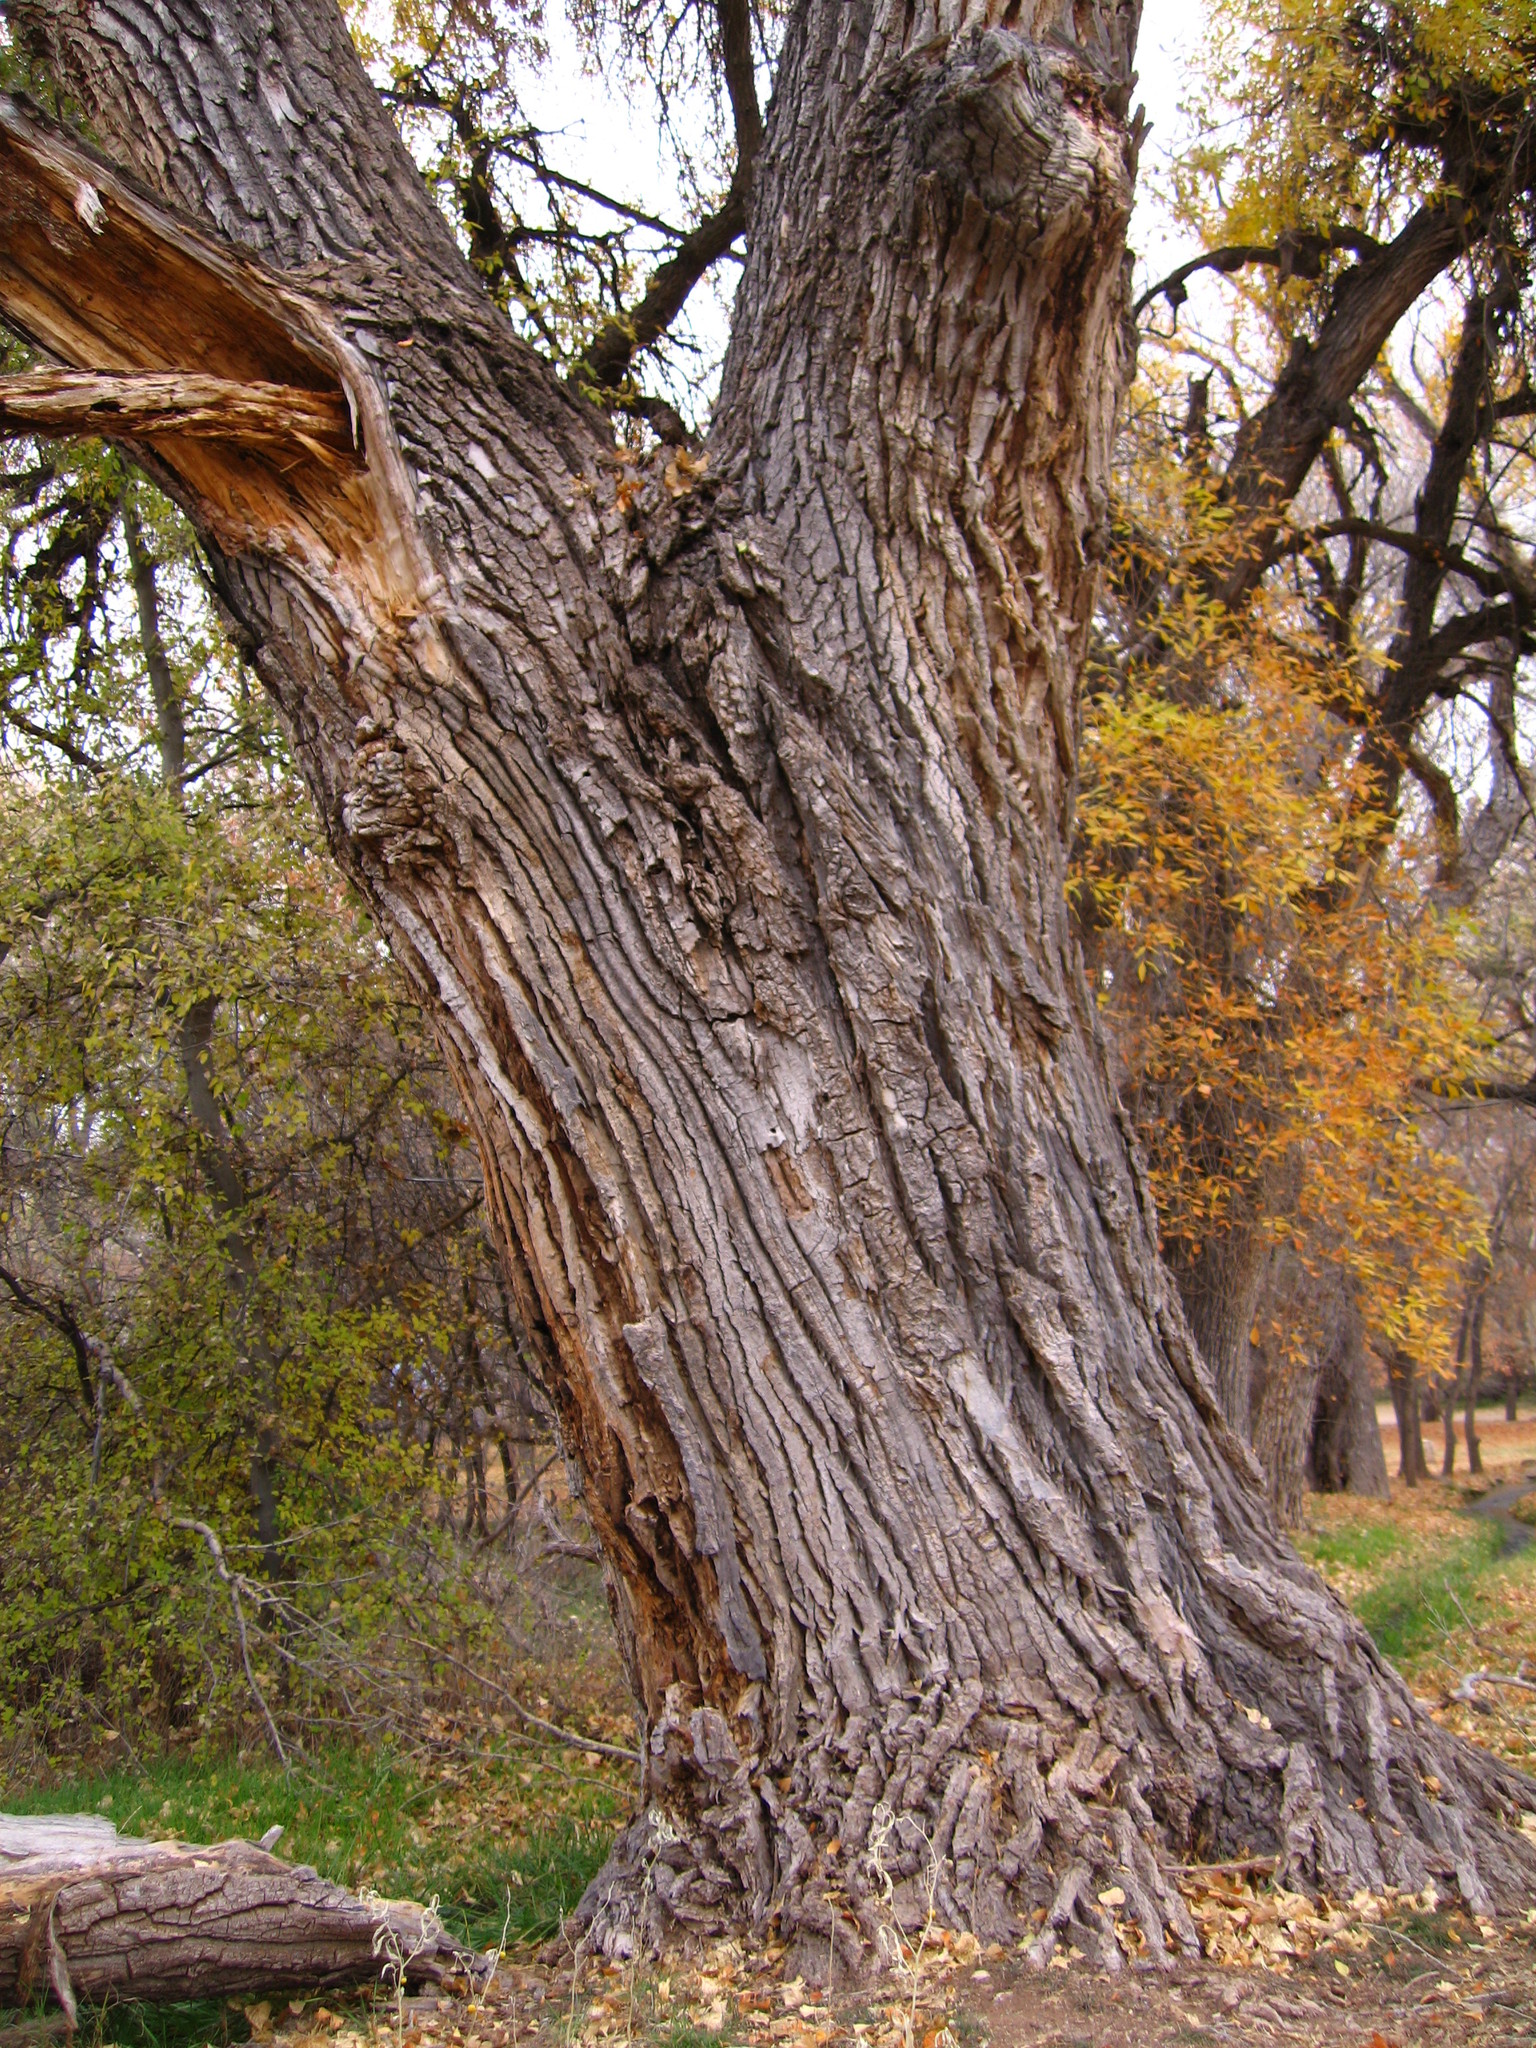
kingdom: Plantae
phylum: Tracheophyta
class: Magnoliopsida
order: Malpighiales
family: Salicaceae
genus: Populus
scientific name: Populus fremontii
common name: Fremont's cottonwood
